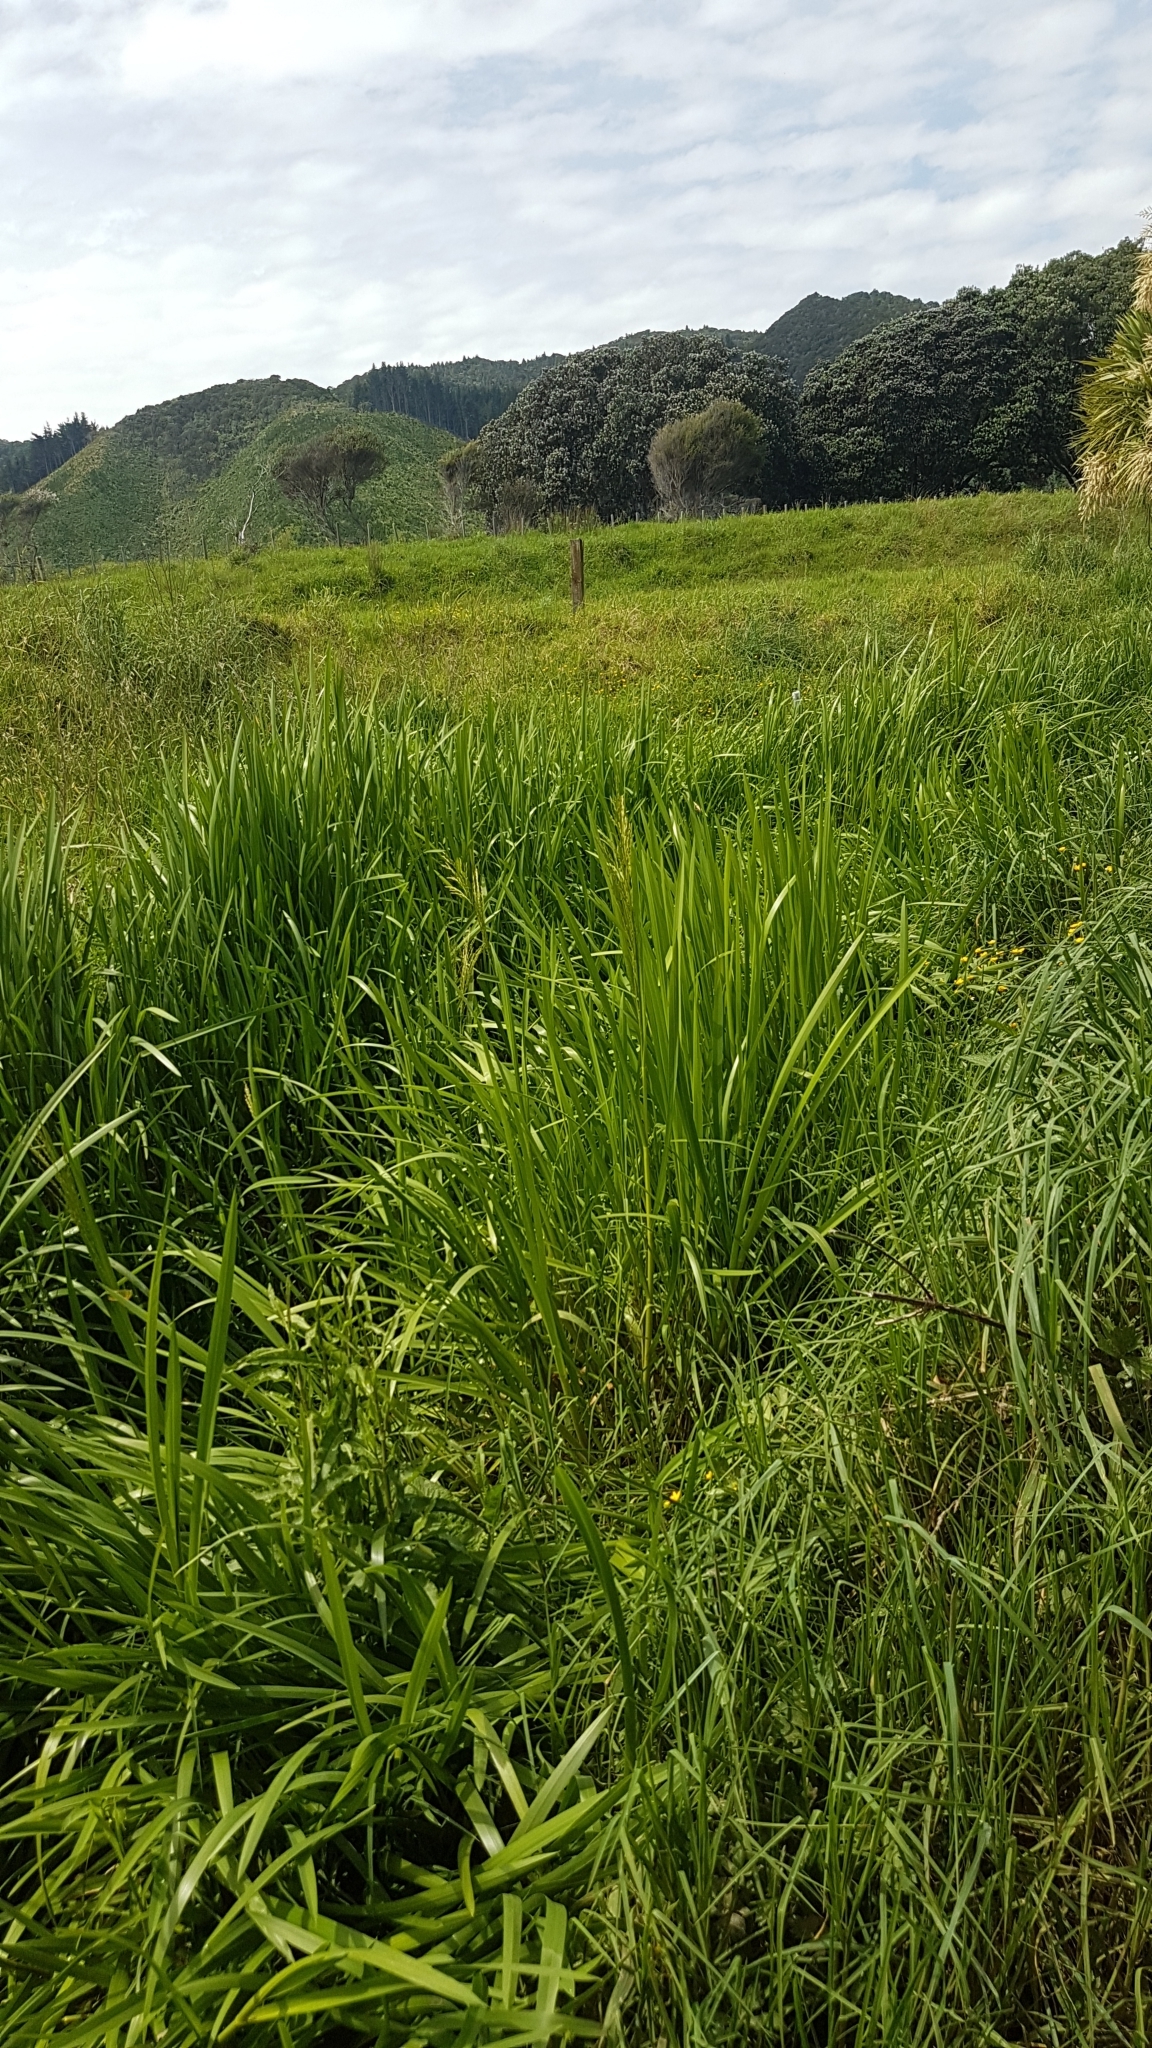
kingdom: Plantae
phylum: Tracheophyta
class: Liliopsida
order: Poales
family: Poaceae
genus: Glyceria
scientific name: Glyceria maxima
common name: Reed mannagrass
